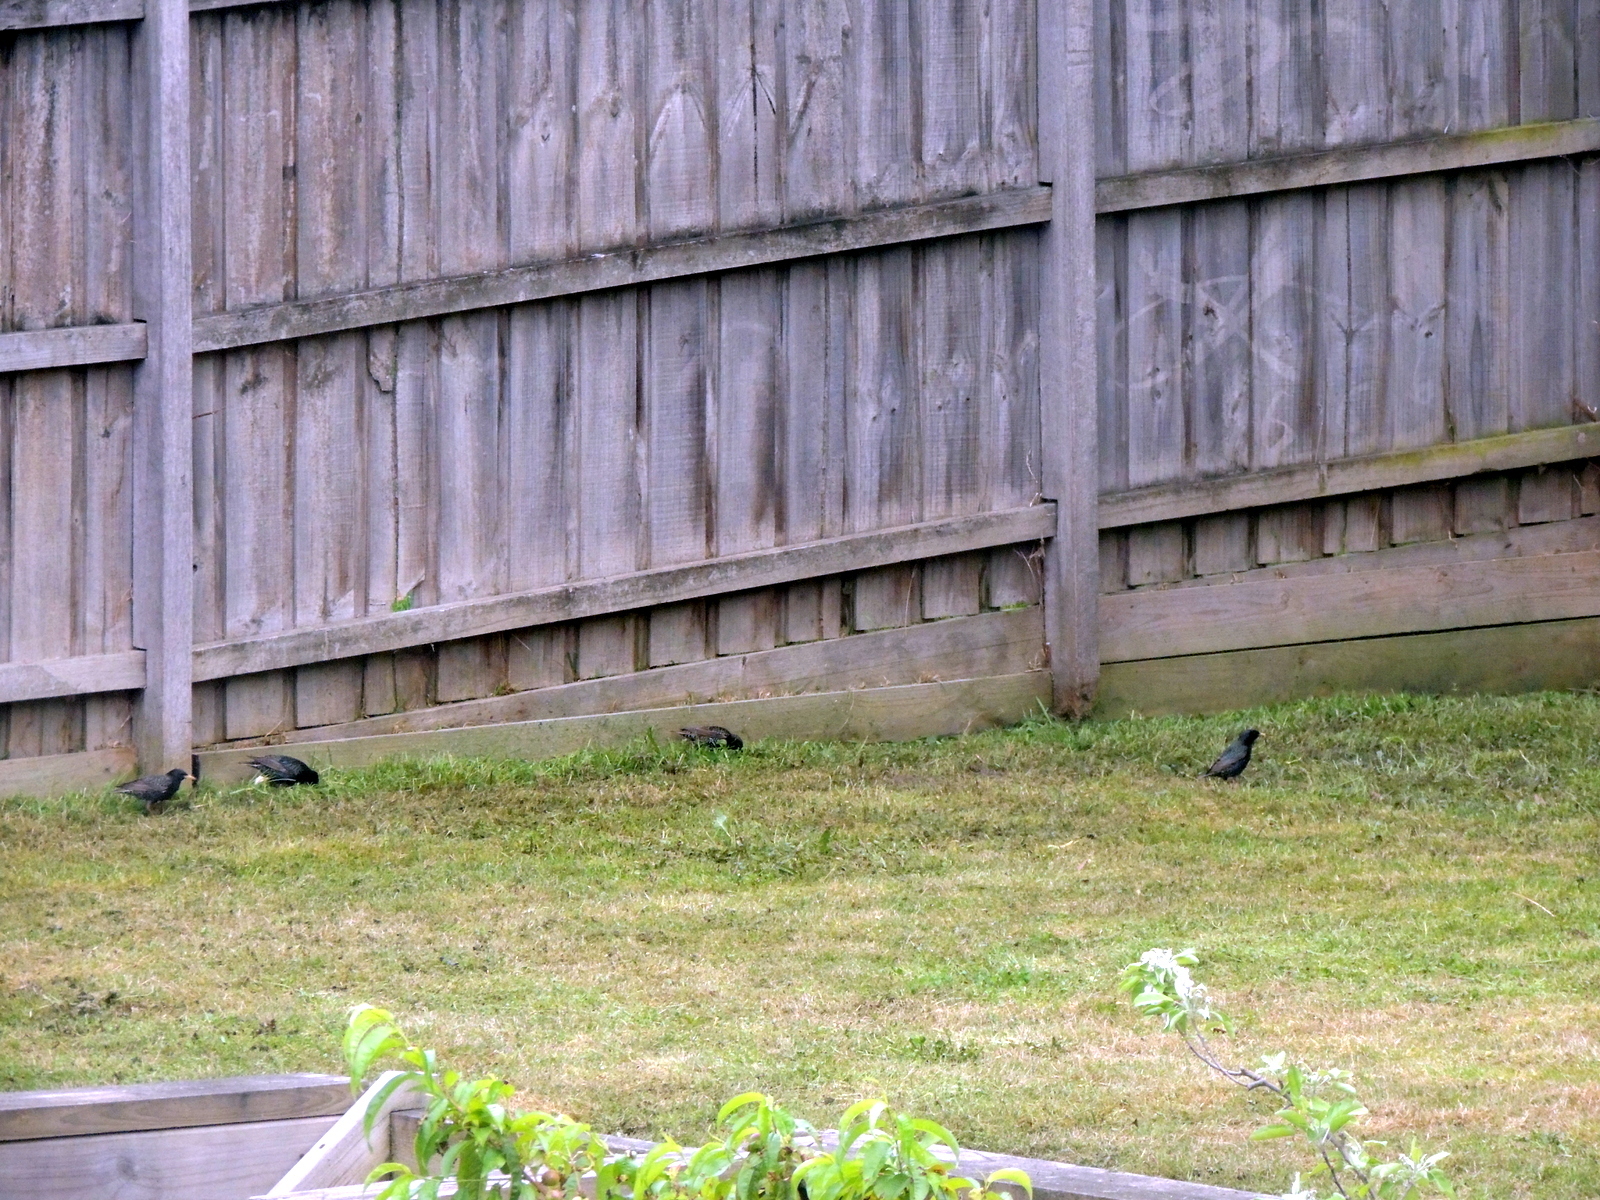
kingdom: Animalia
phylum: Chordata
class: Aves
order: Passeriformes
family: Sturnidae
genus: Sturnus
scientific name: Sturnus vulgaris
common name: Common starling
